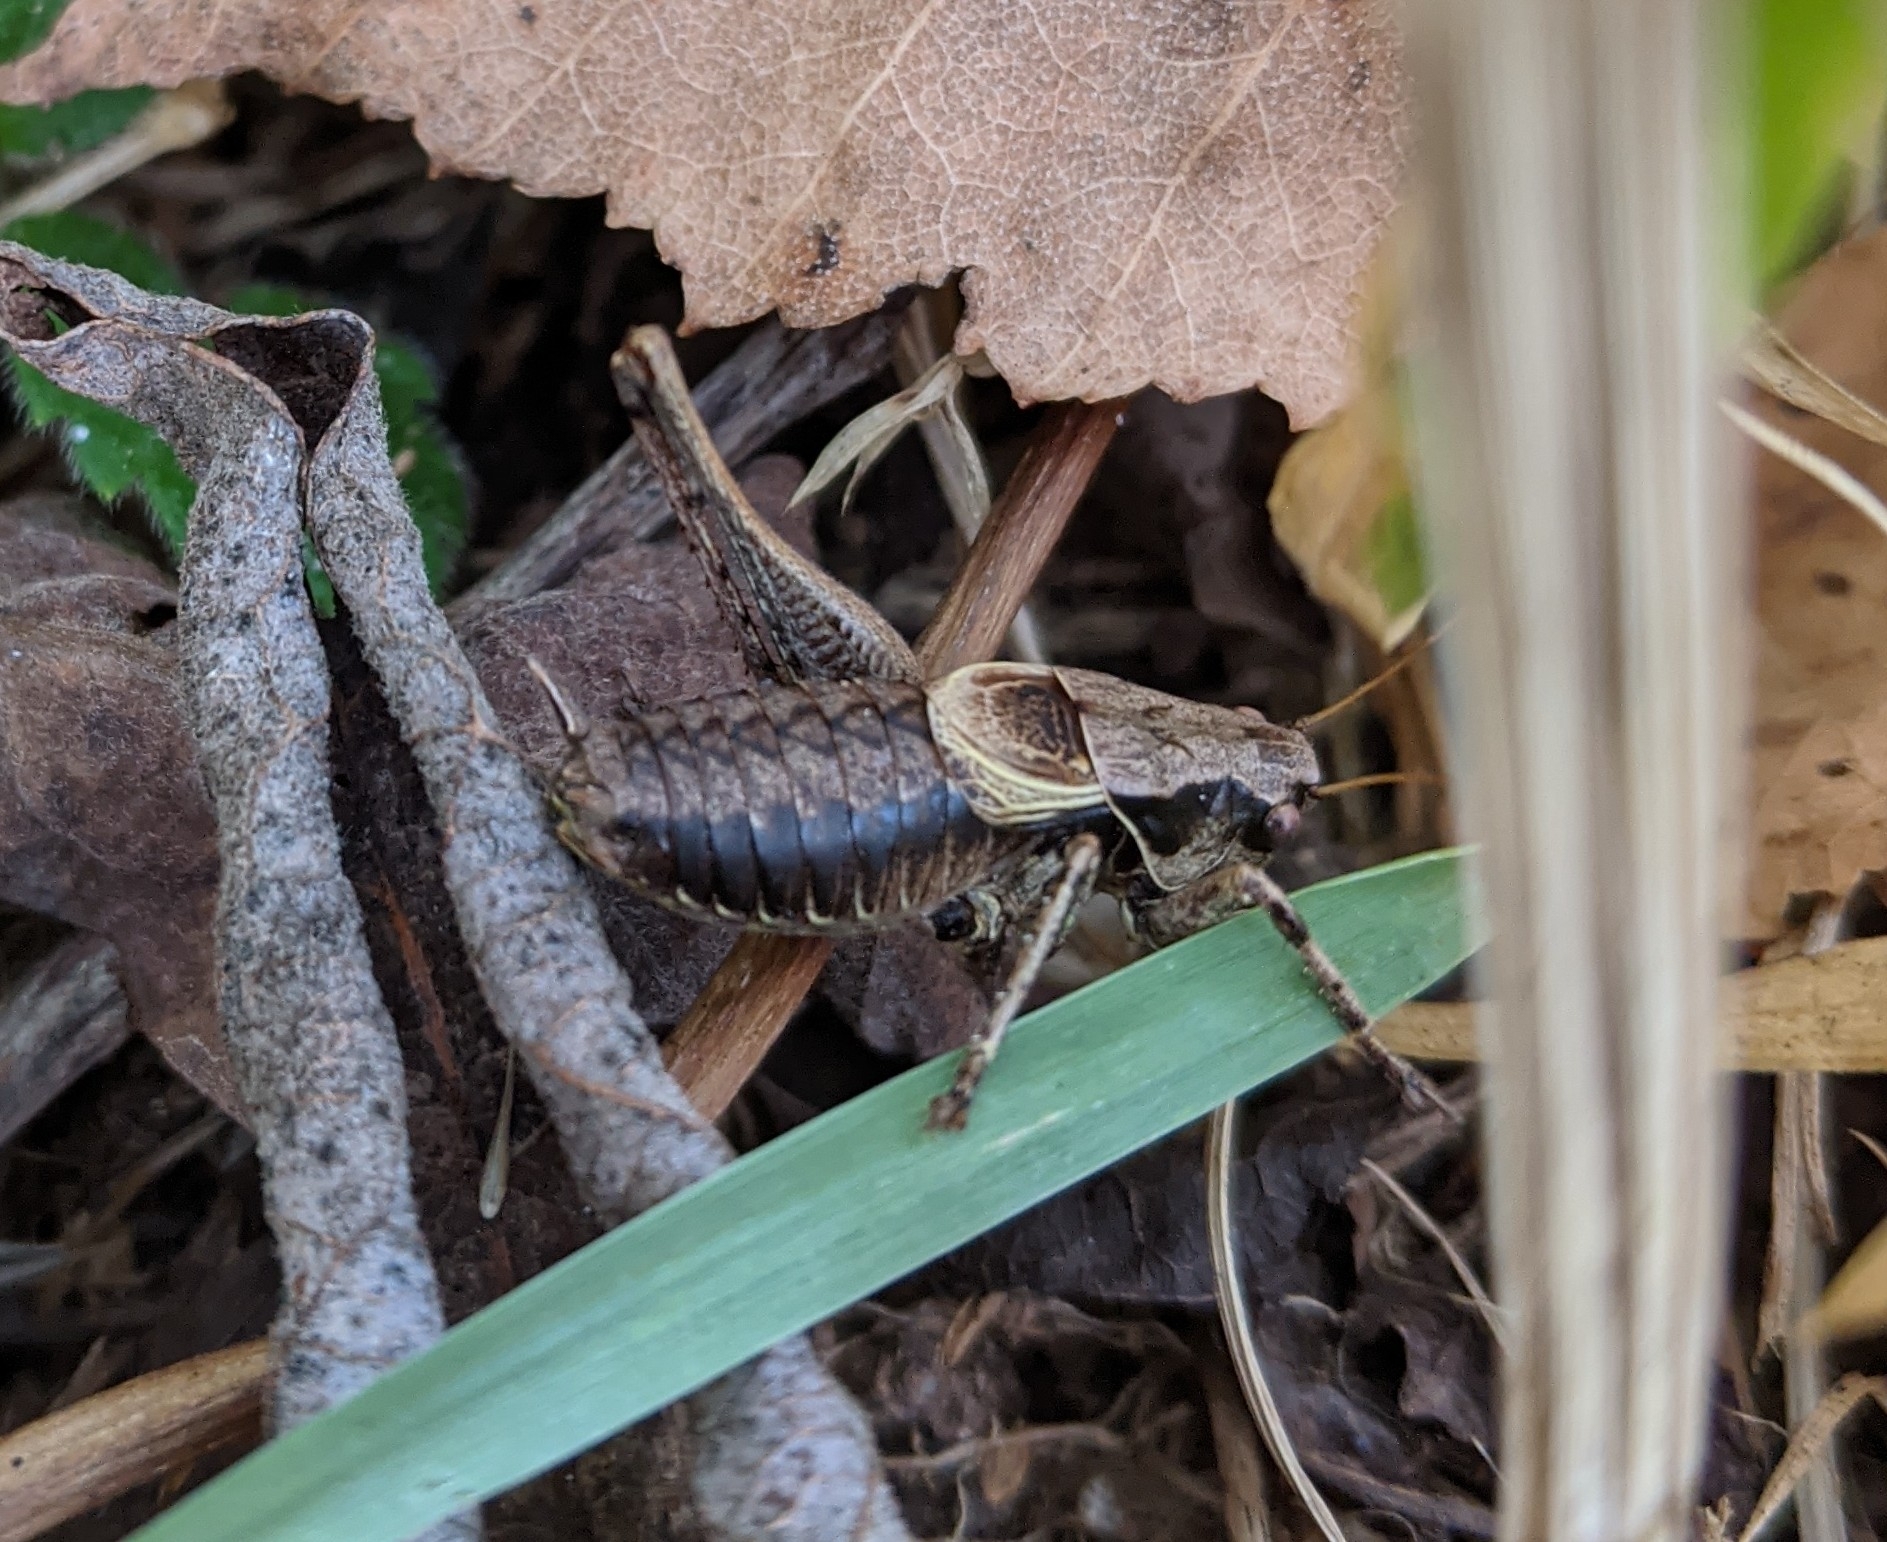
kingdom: Animalia
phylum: Arthropoda
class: Insecta
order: Orthoptera
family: Tettigoniidae
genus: Pholidoptera
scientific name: Pholidoptera griseoaptera
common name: Dark bush-cricket
